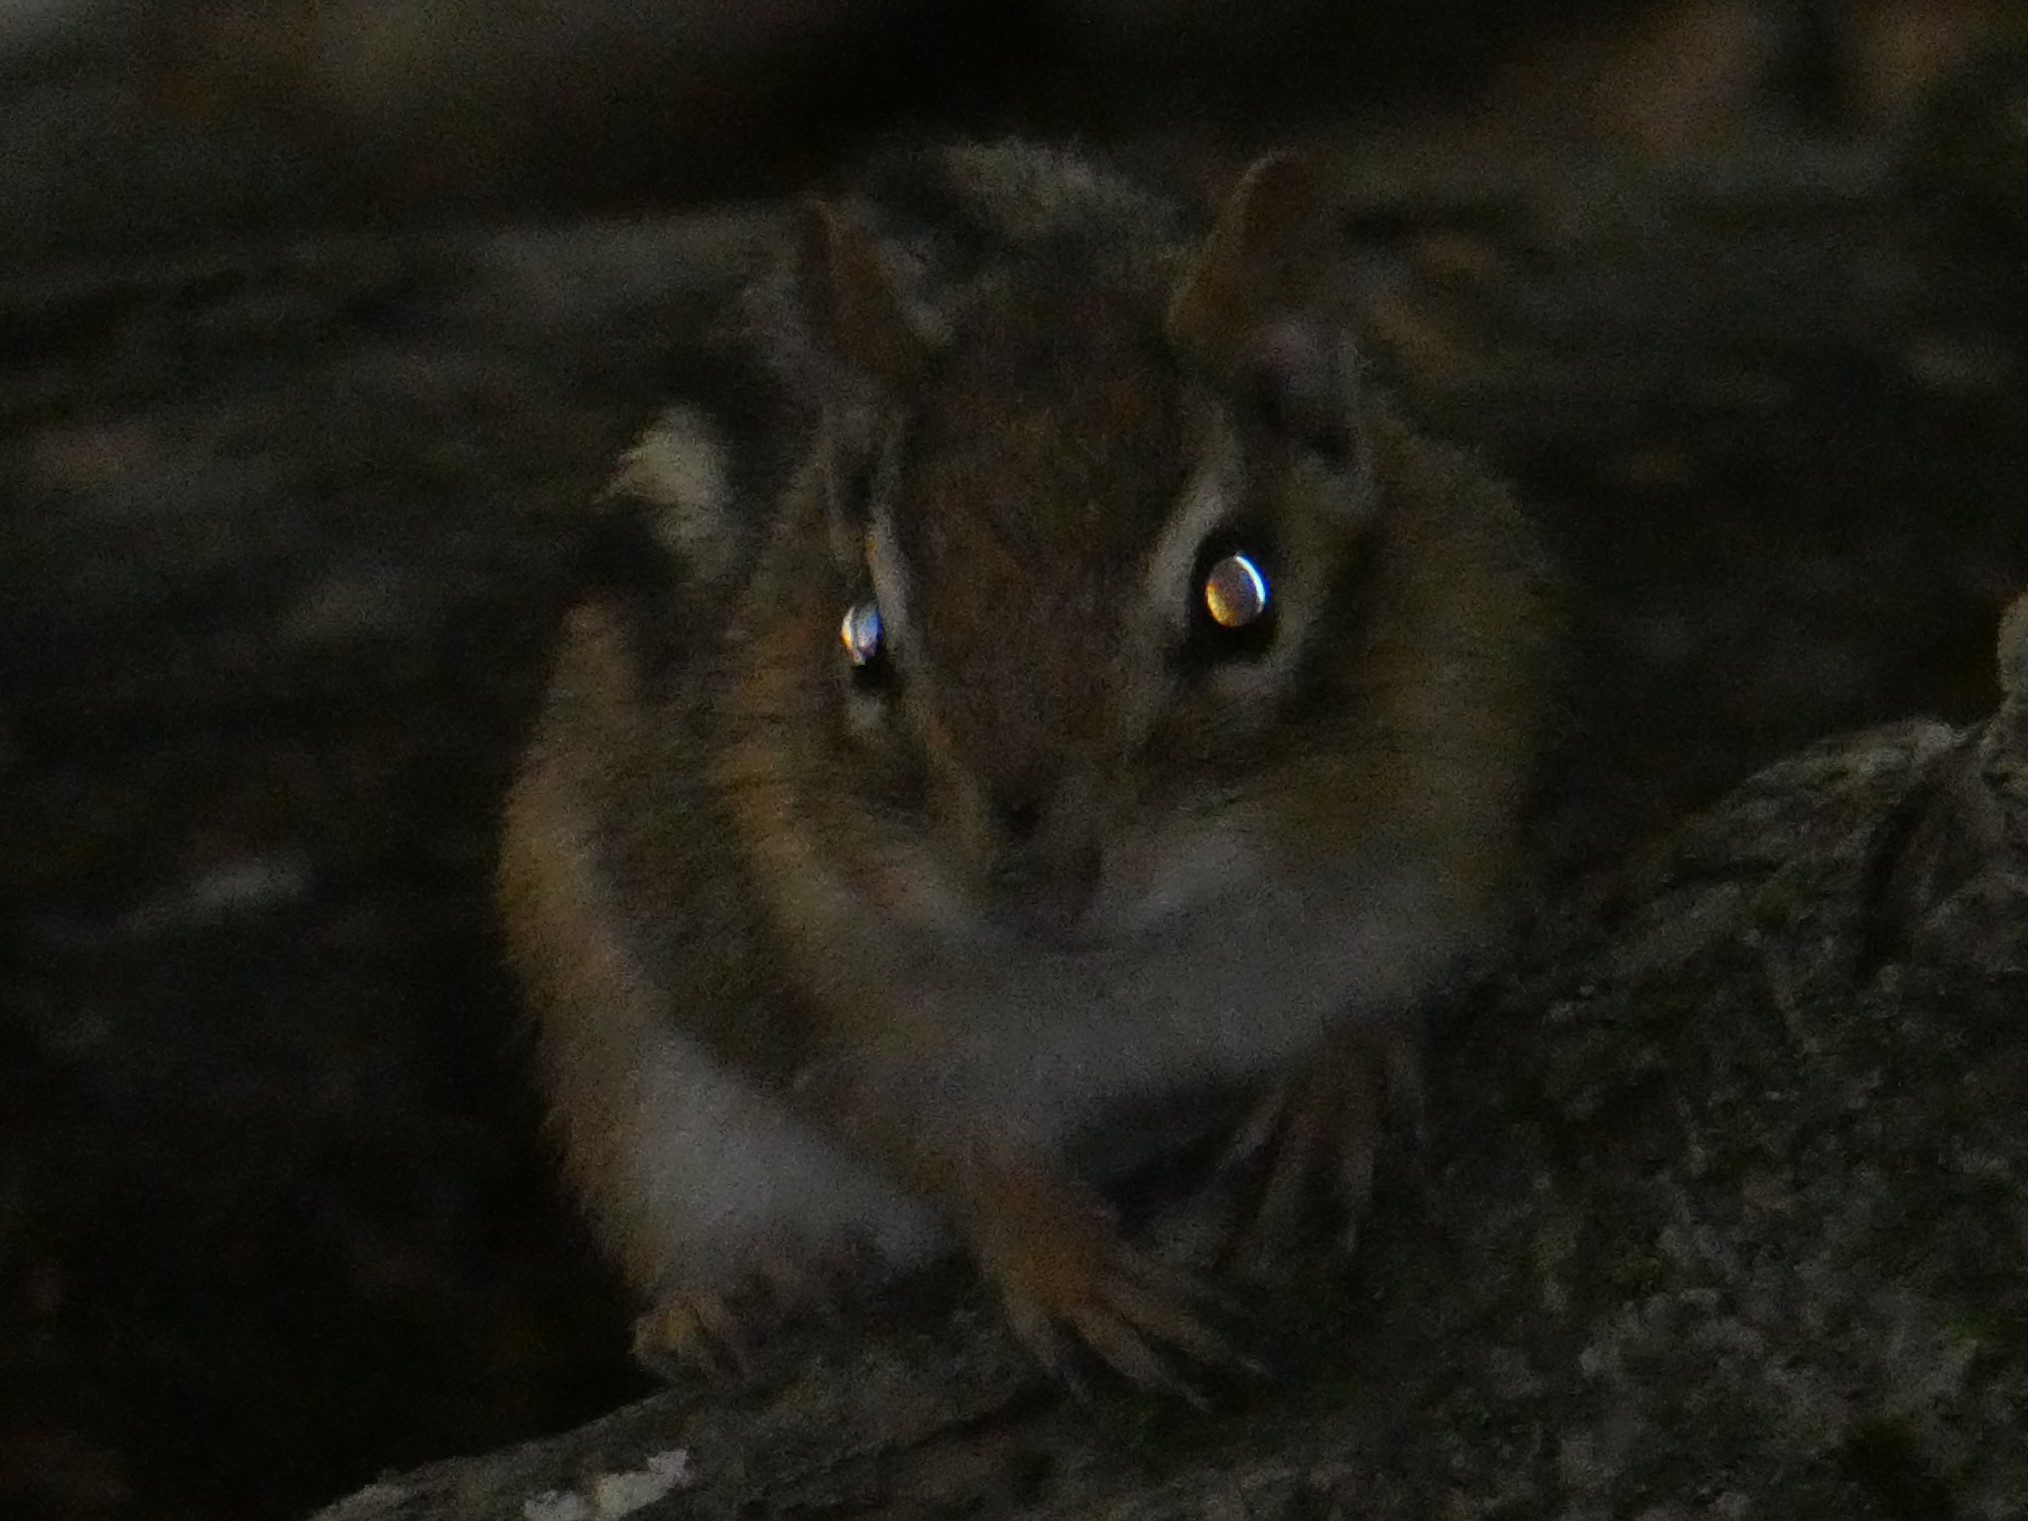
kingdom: Animalia
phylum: Chordata
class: Mammalia
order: Rodentia
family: Sciuridae
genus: Tamias
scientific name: Tamias striatus
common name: Eastern chipmunk
